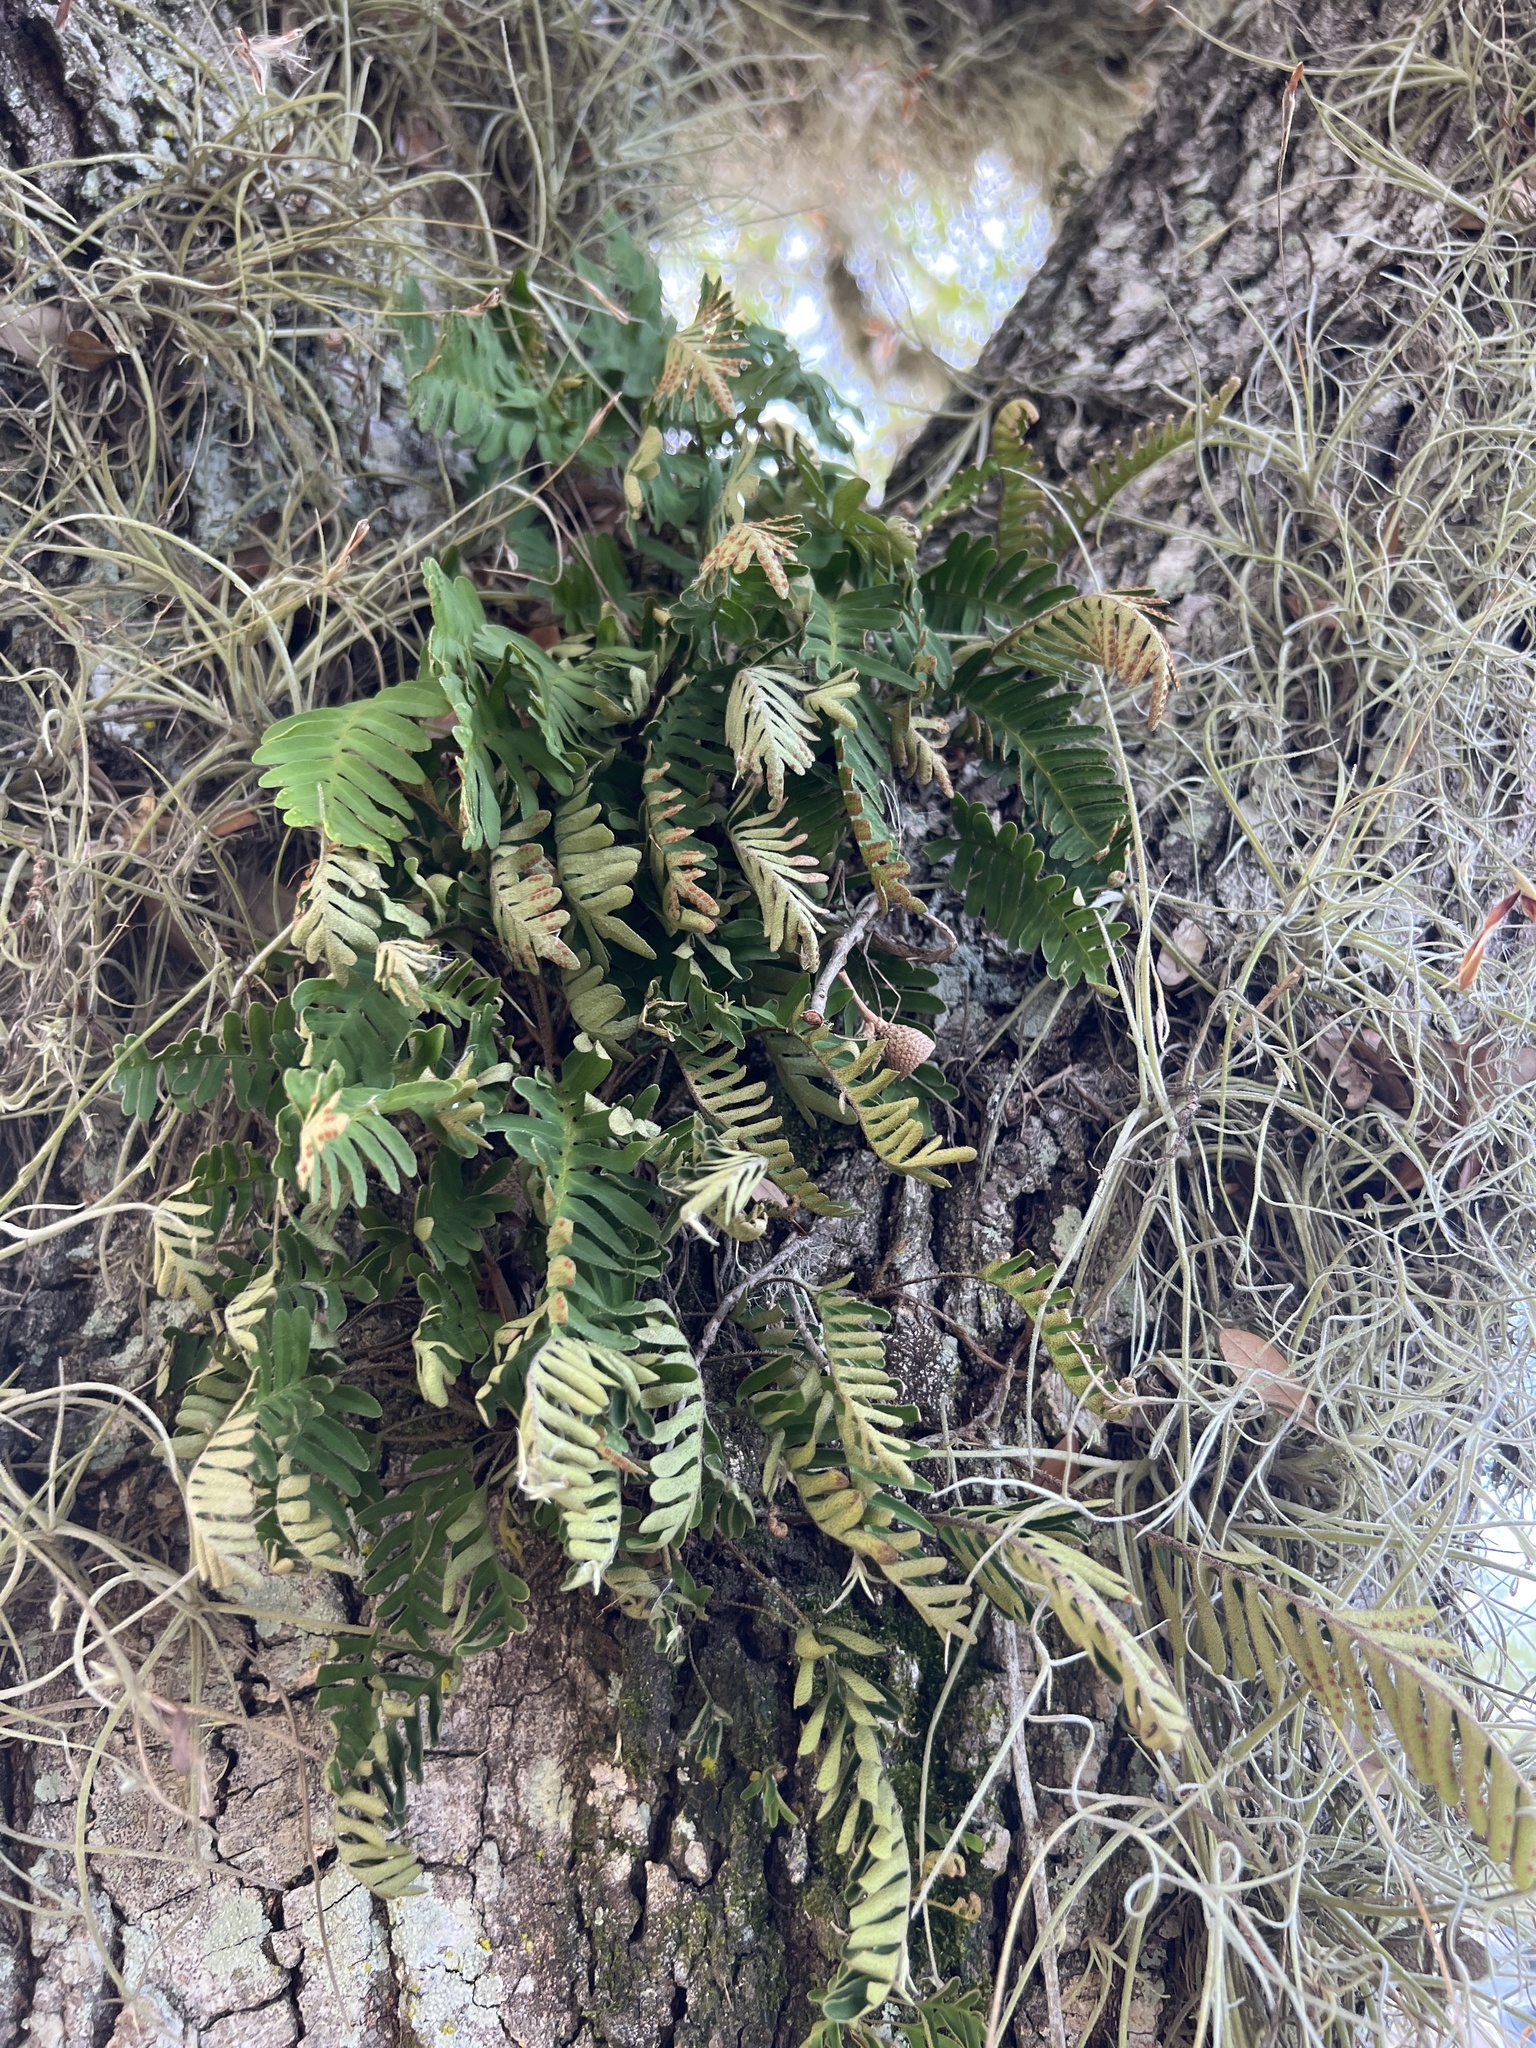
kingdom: Plantae
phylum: Tracheophyta
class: Polypodiopsida
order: Polypodiales
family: Polypodiaceae
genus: Pleopeltis
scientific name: Pleopeltis michauxiana
